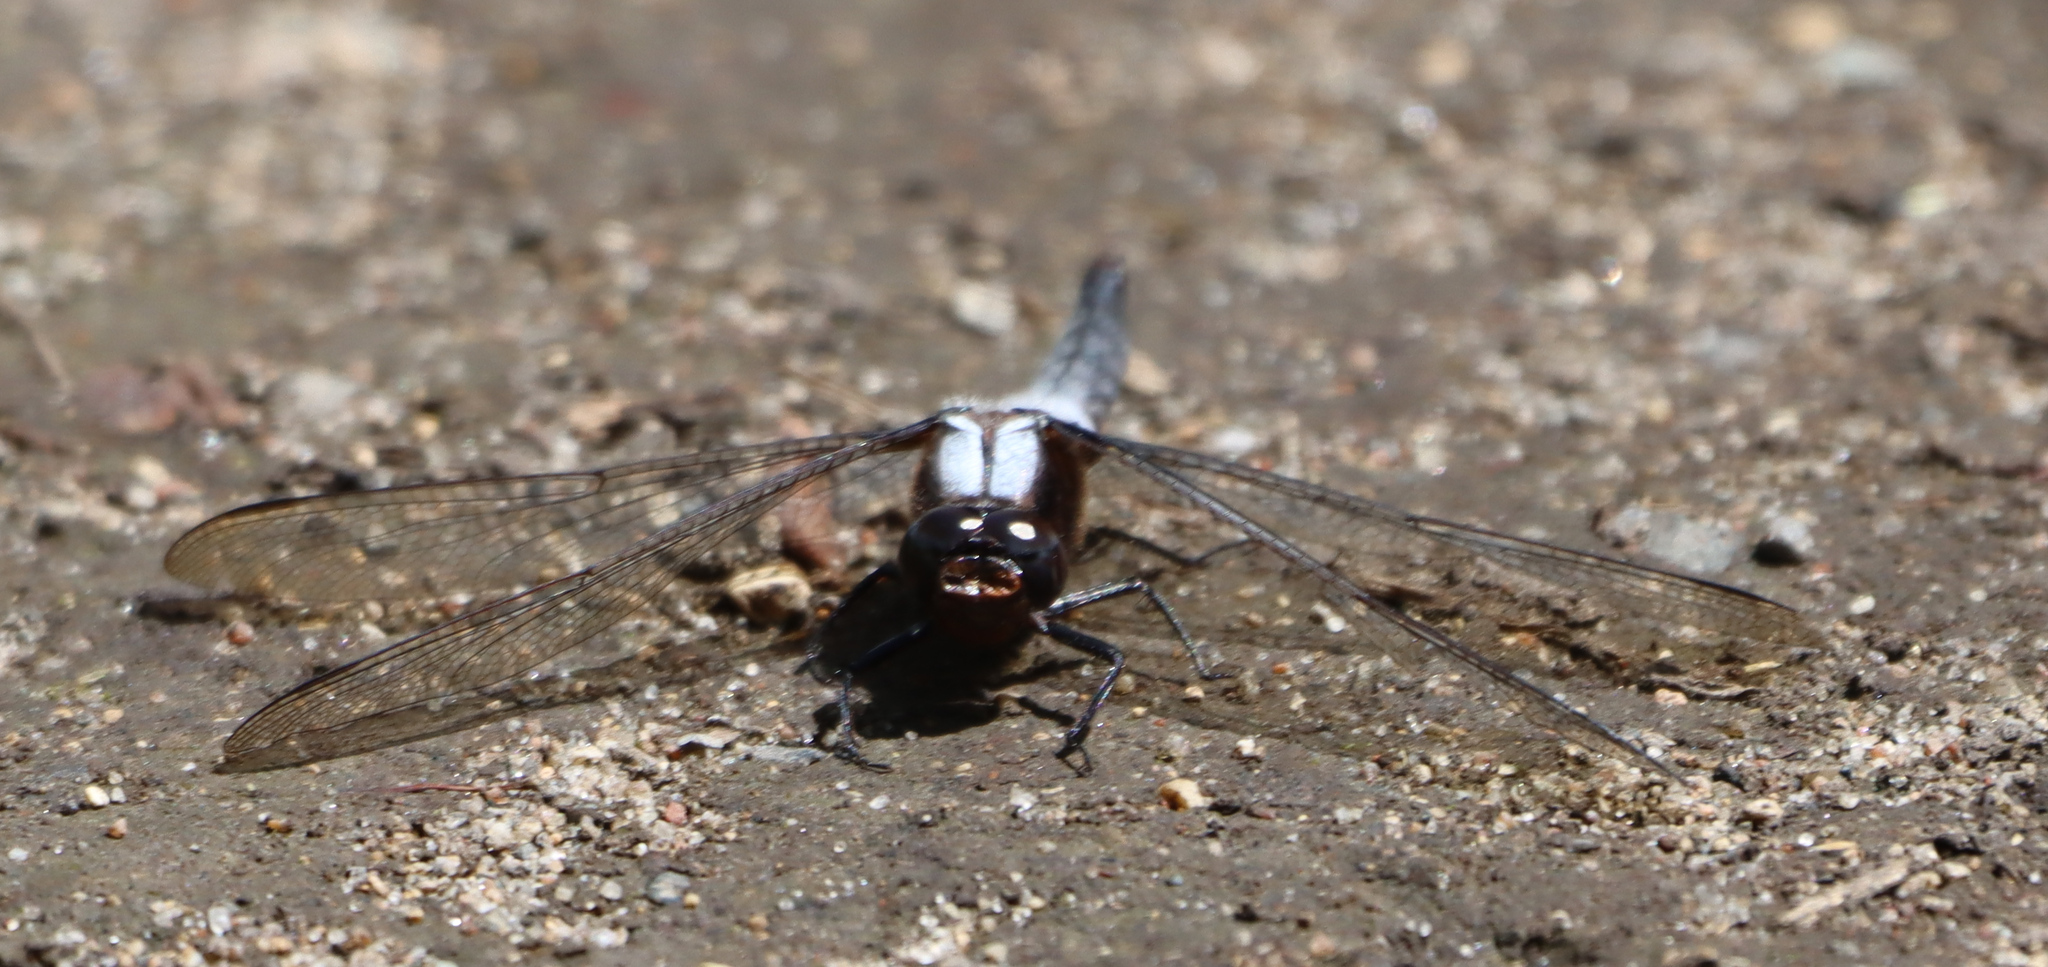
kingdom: Animalia
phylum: Arthropoda
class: Insecta
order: Odonata
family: Libellulidae
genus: Ladona
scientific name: Ladona julia
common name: Chalk-fronted corporal
